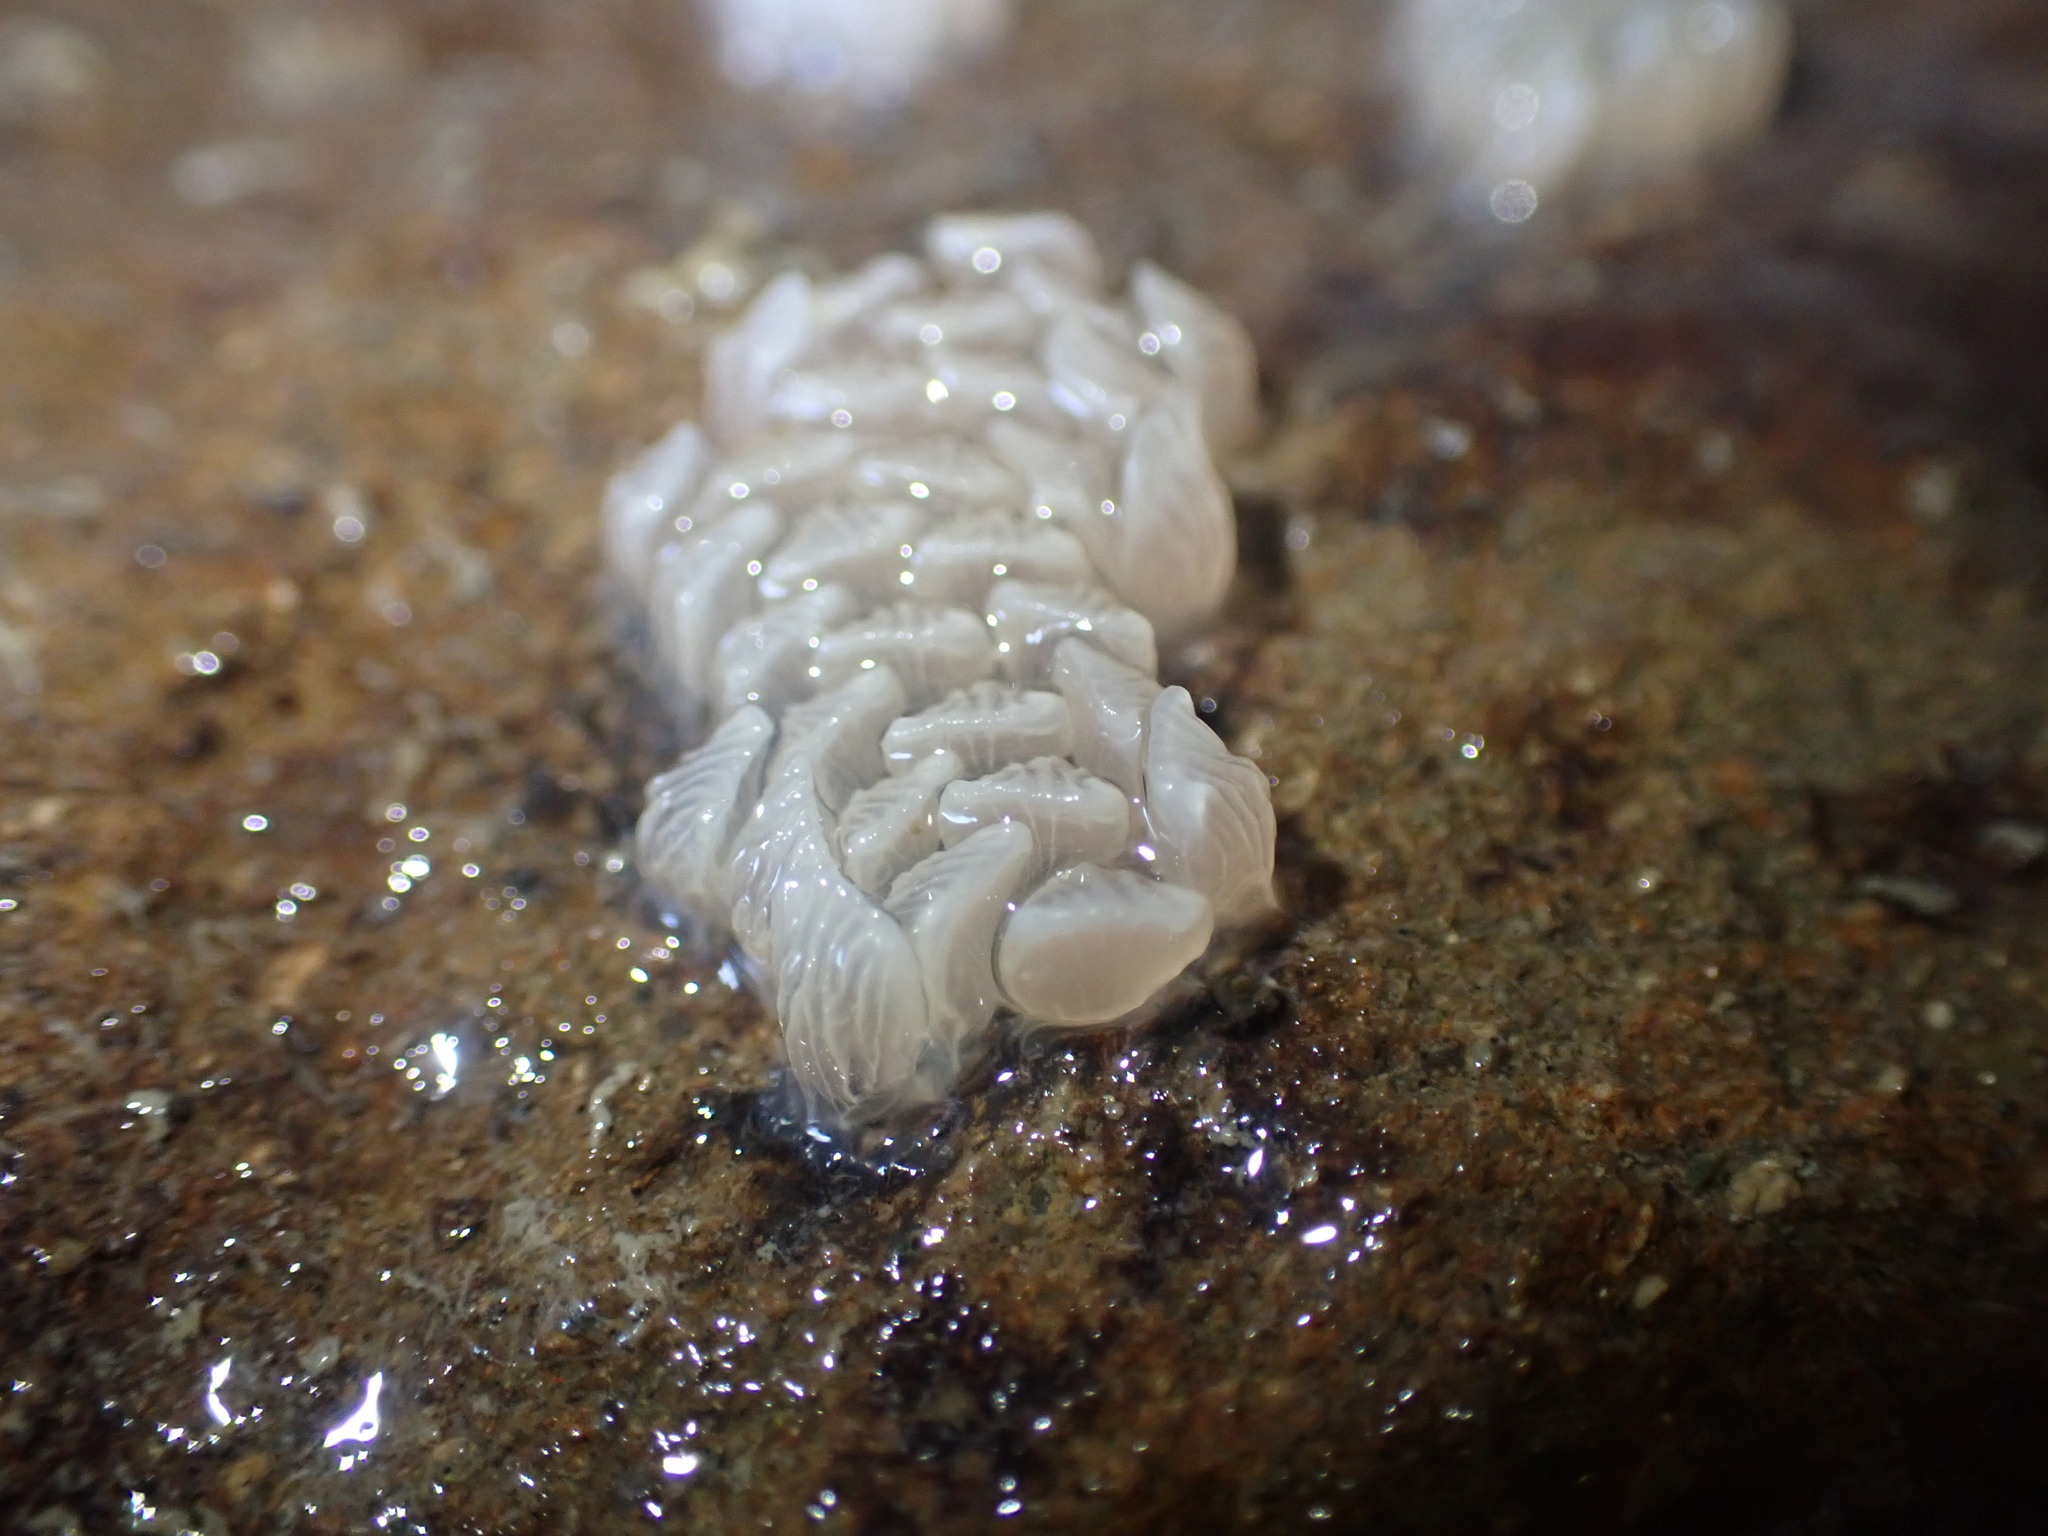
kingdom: Animalia
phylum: Mollusca
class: Gastropoda
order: Neogastropoda
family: Cominellidae
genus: Cominella
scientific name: Cominella virgata
